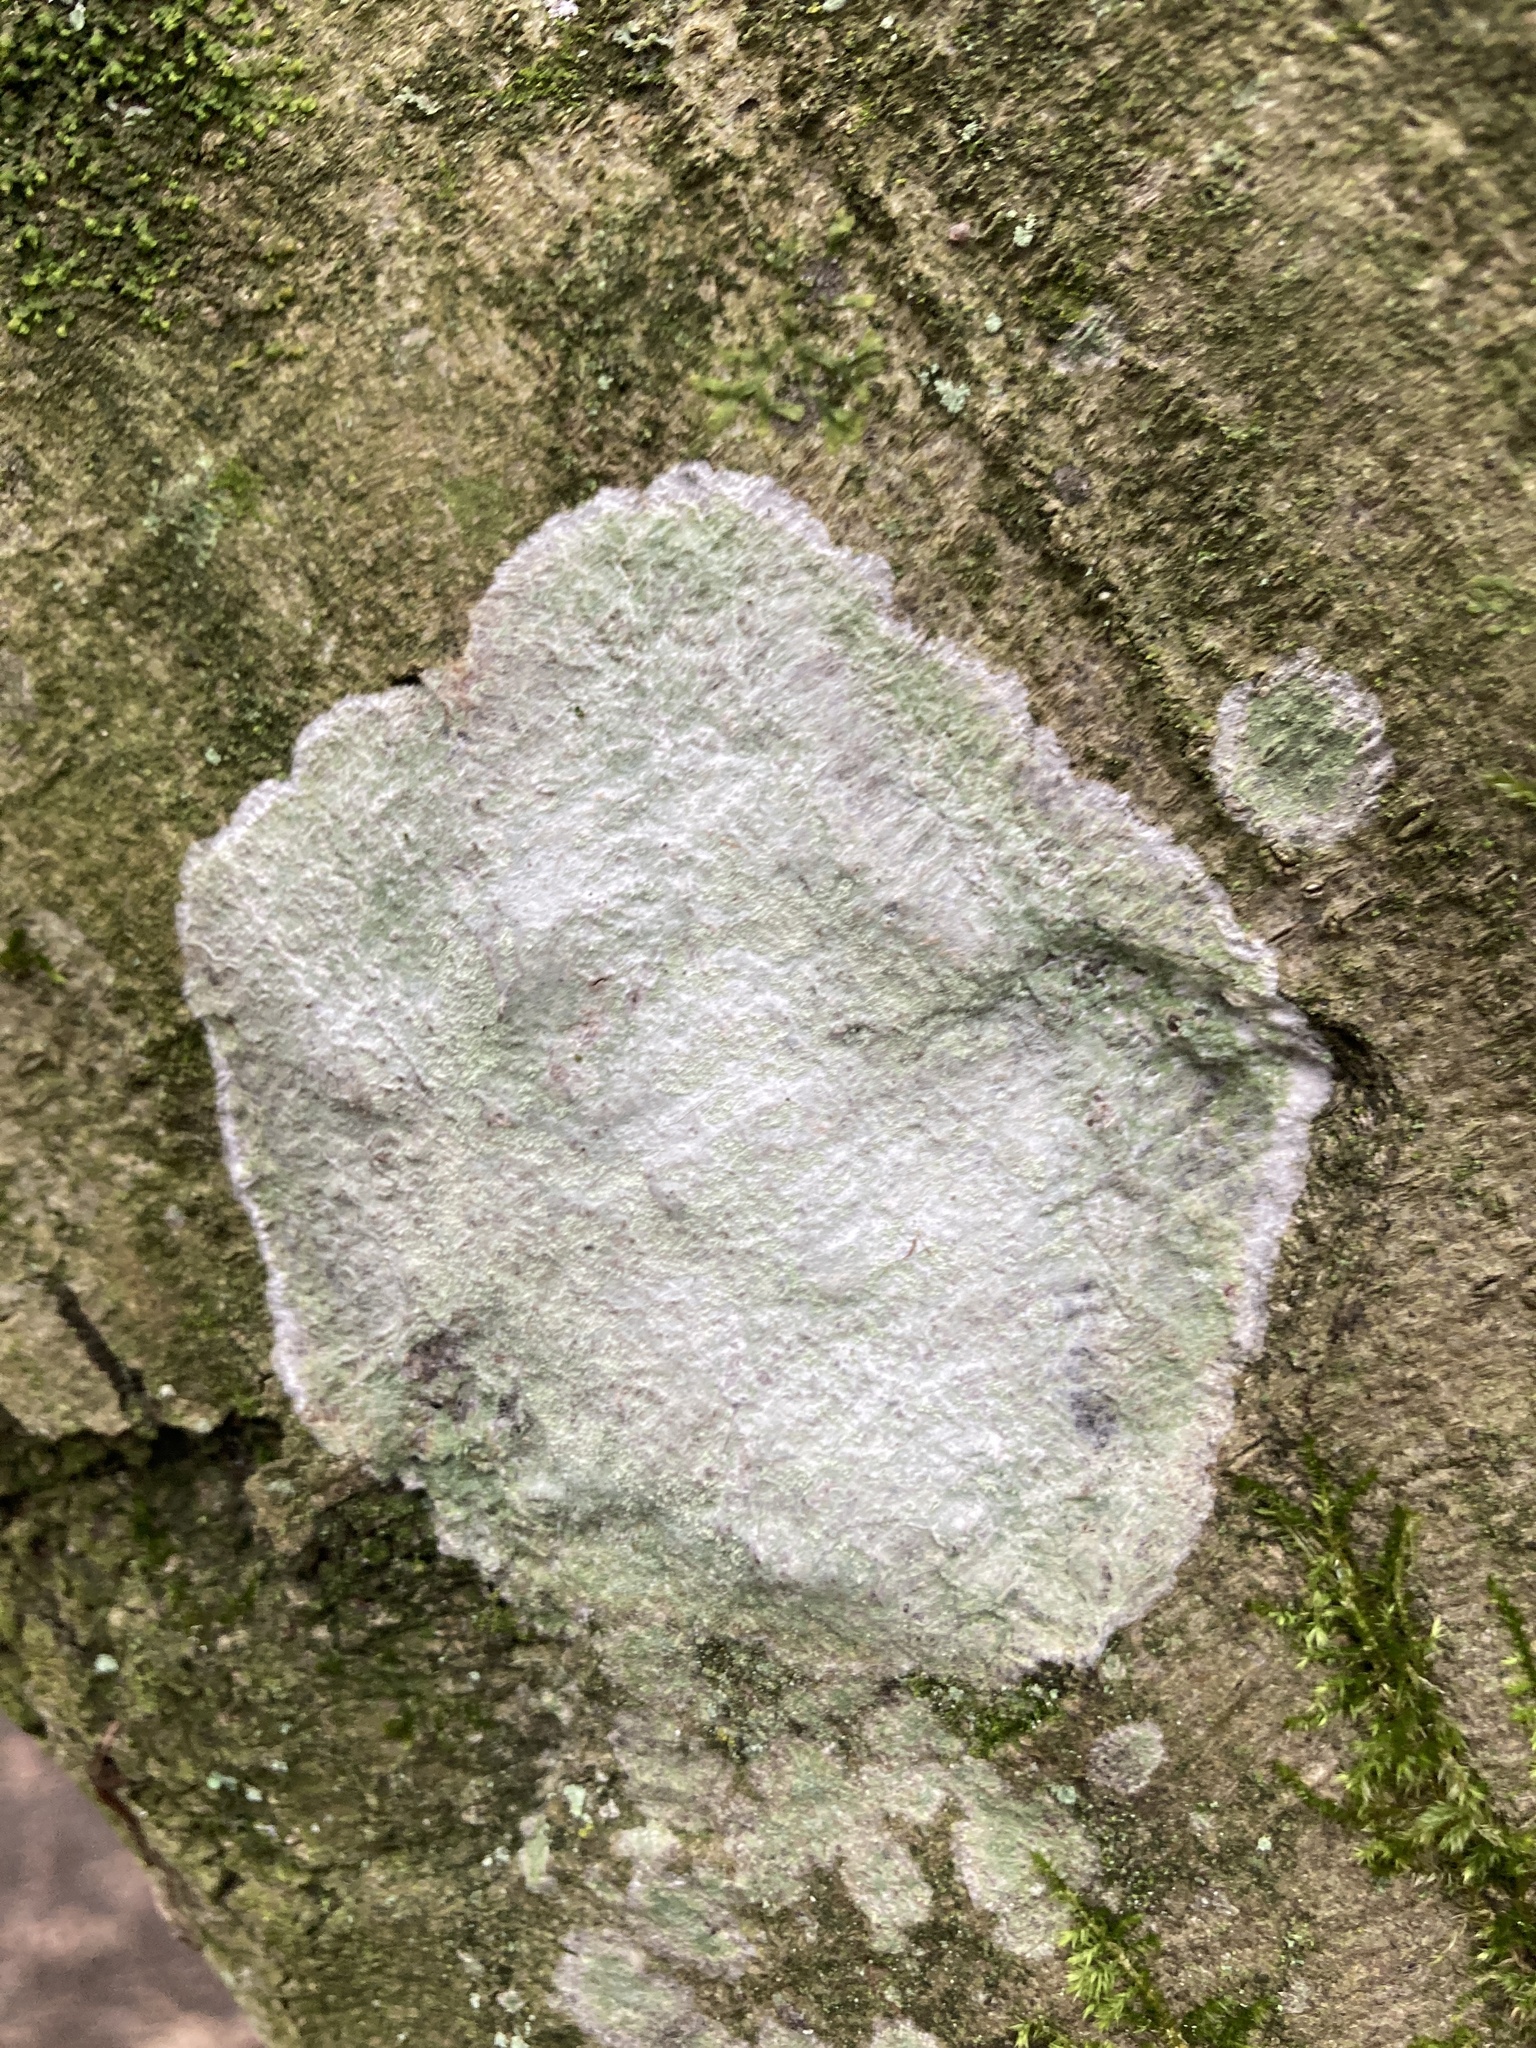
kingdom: Fungi
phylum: Ascomycota
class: Lecanoromycetes
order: Ostropales
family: Phlyctidaceae
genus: Phlyctis
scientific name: Phlyctis argena
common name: Whitewash lichen
